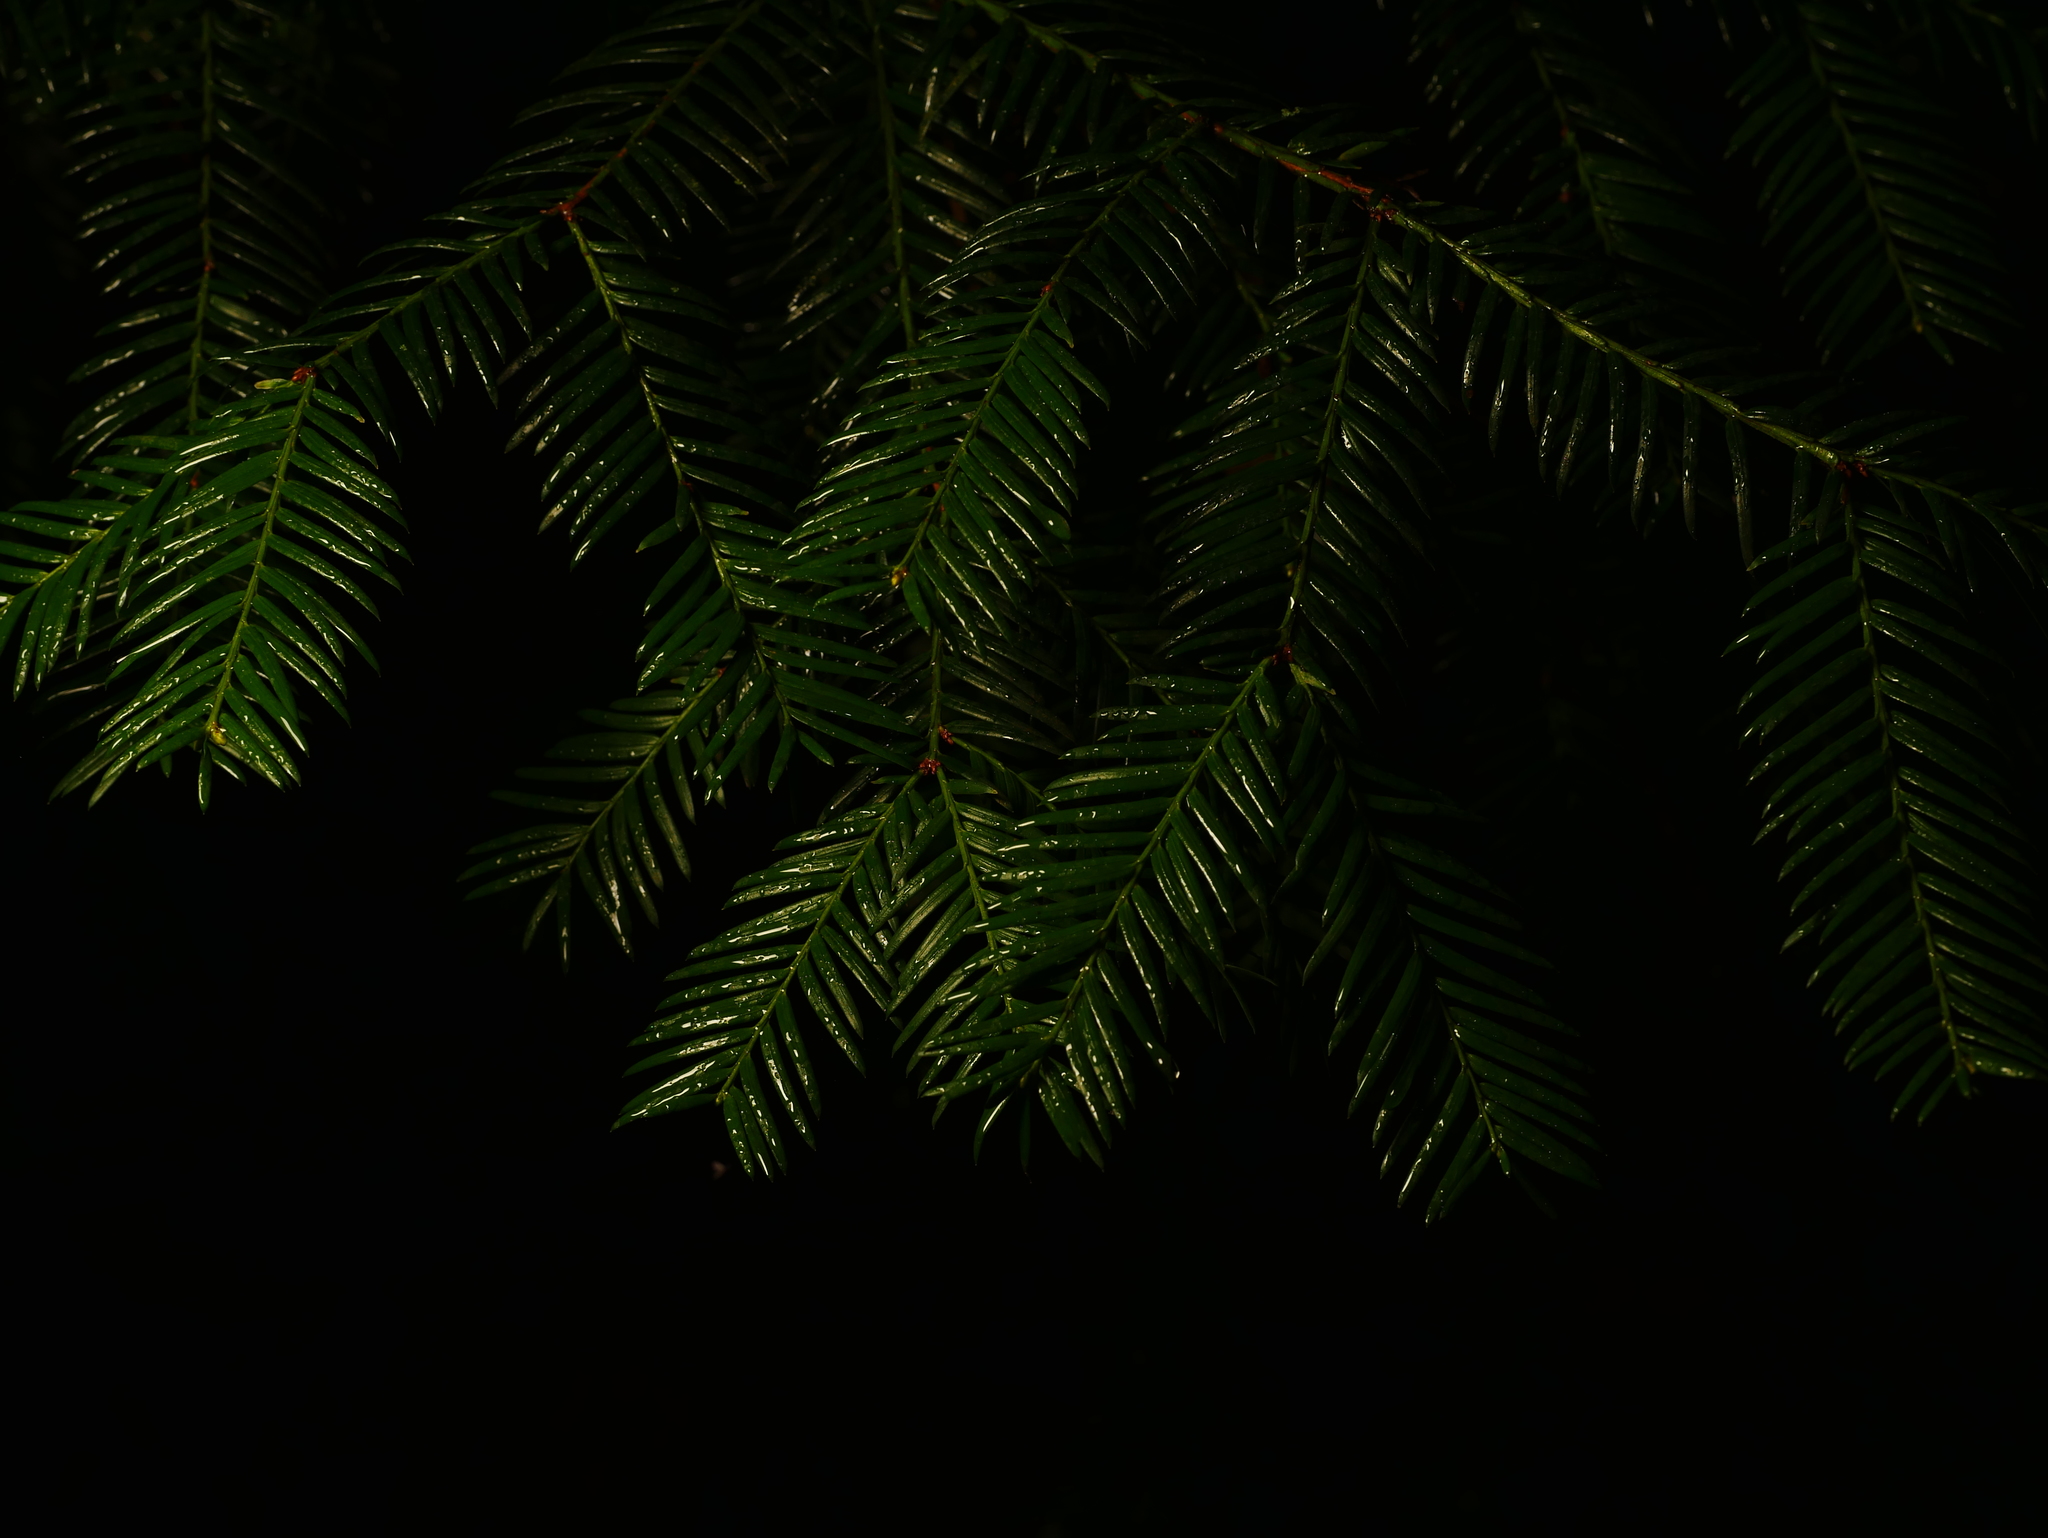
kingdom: Plantae
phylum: Tracheophyta
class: Pinopsida
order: Pinales
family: Taxaceae
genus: Taxus
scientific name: Taxus baccata
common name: Yew
